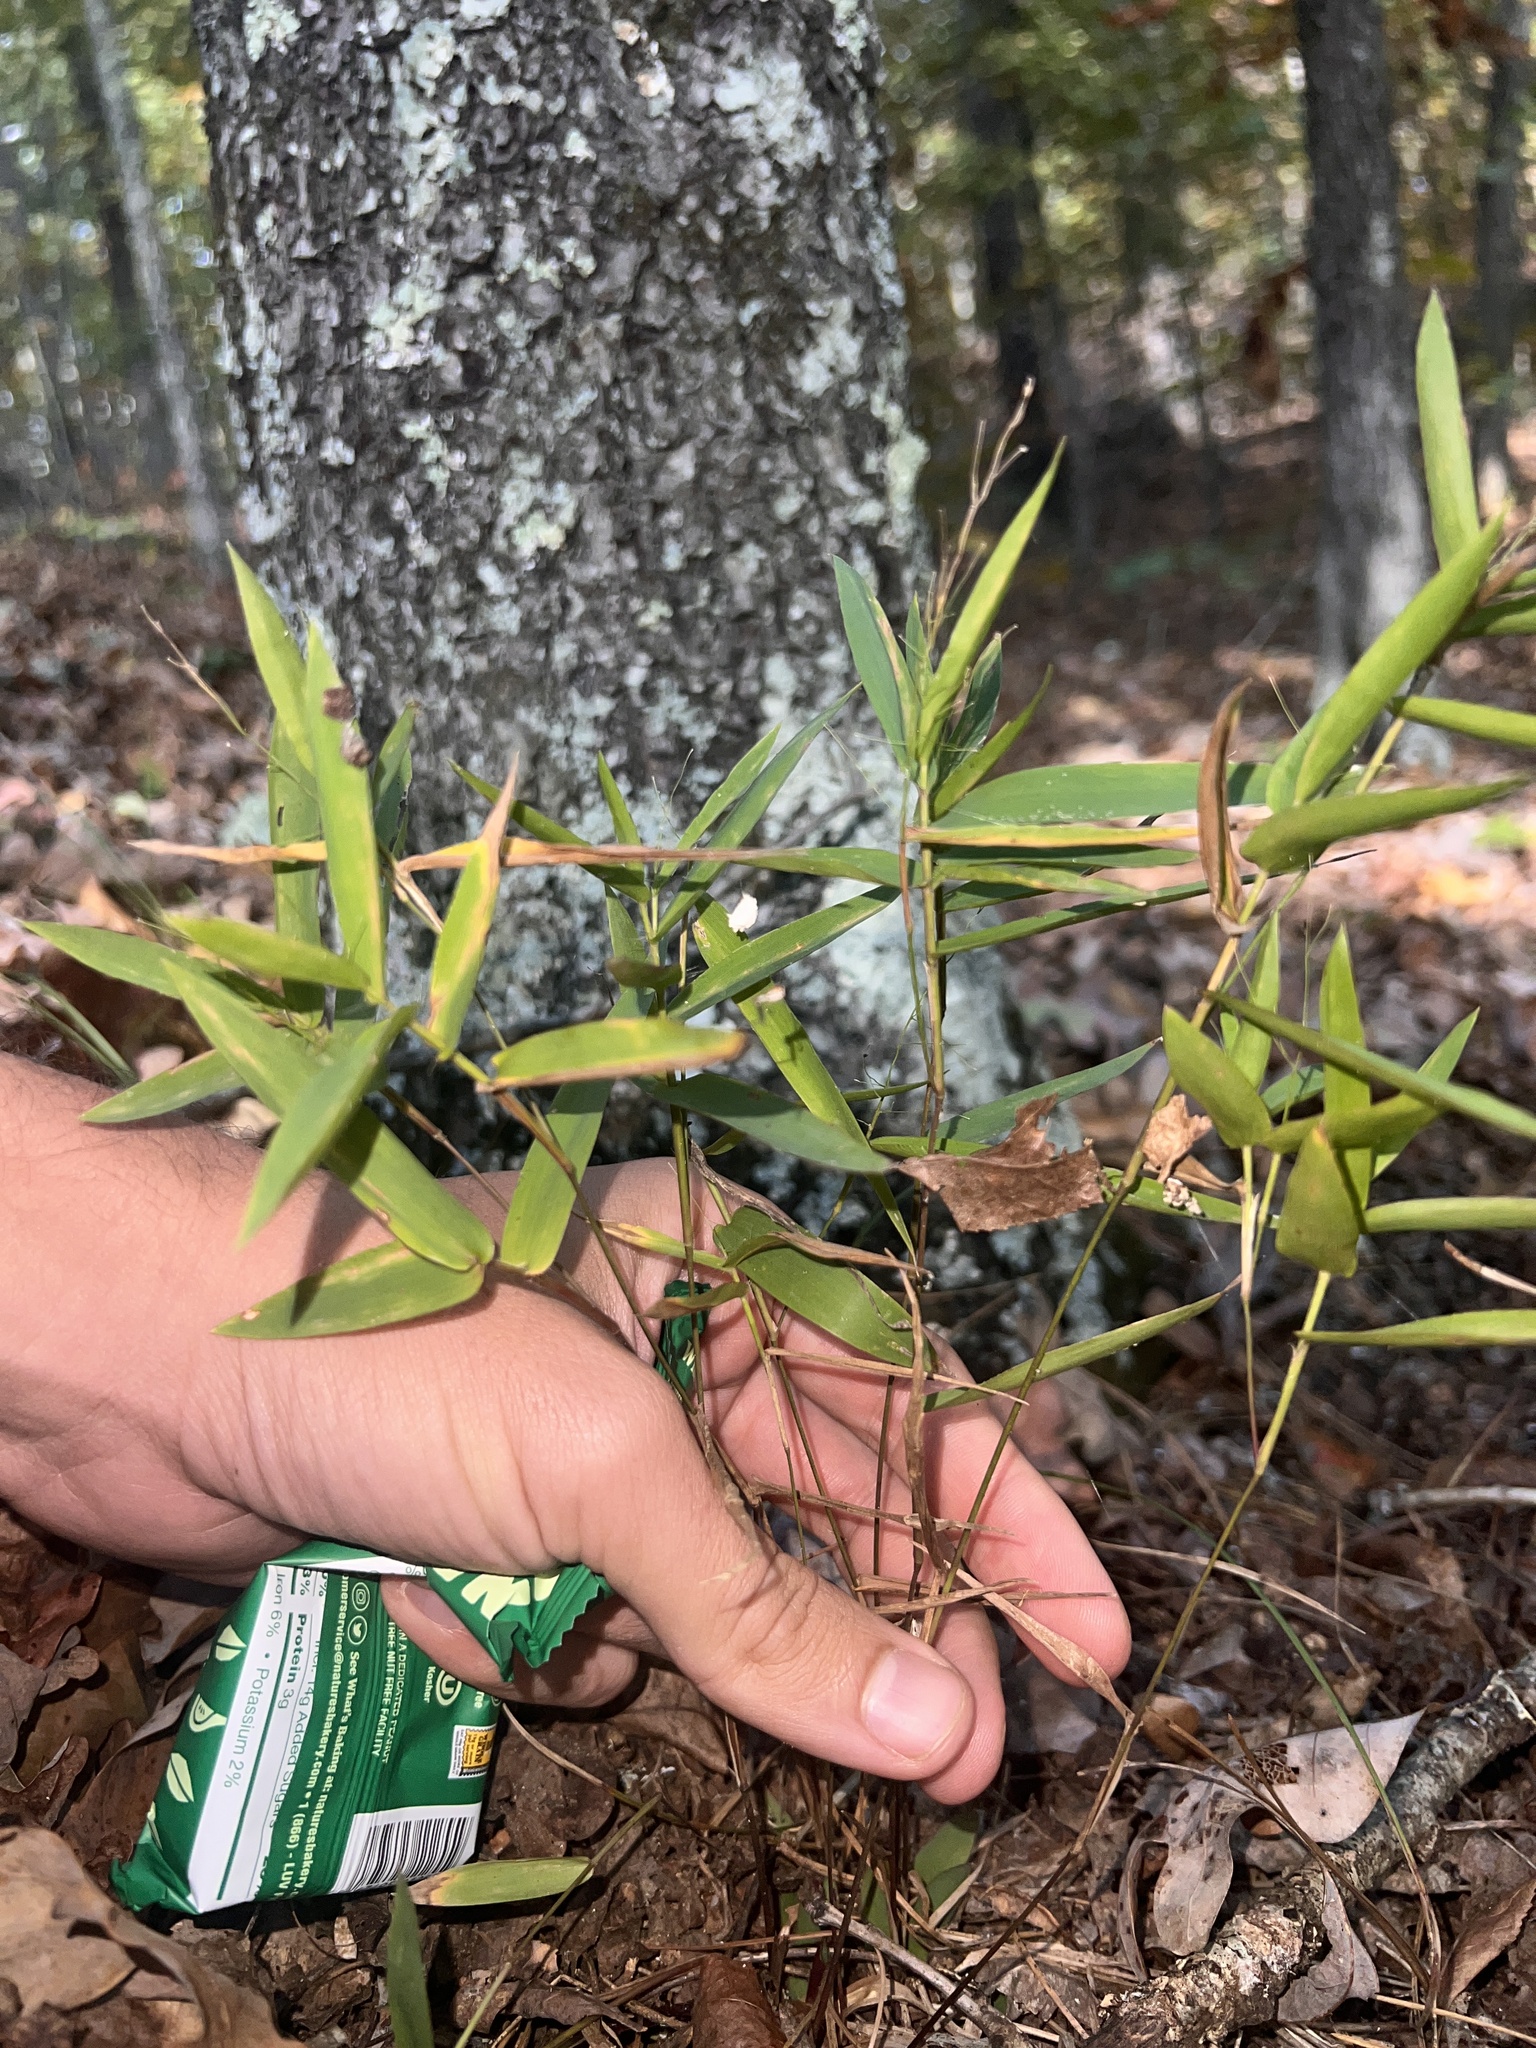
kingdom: Plantae
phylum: Tracheophyta
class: Liliopsida
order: Poales
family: Poaceae
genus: Dichanthelium
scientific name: Dichanthelium commutatum
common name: Variable witchgrass
